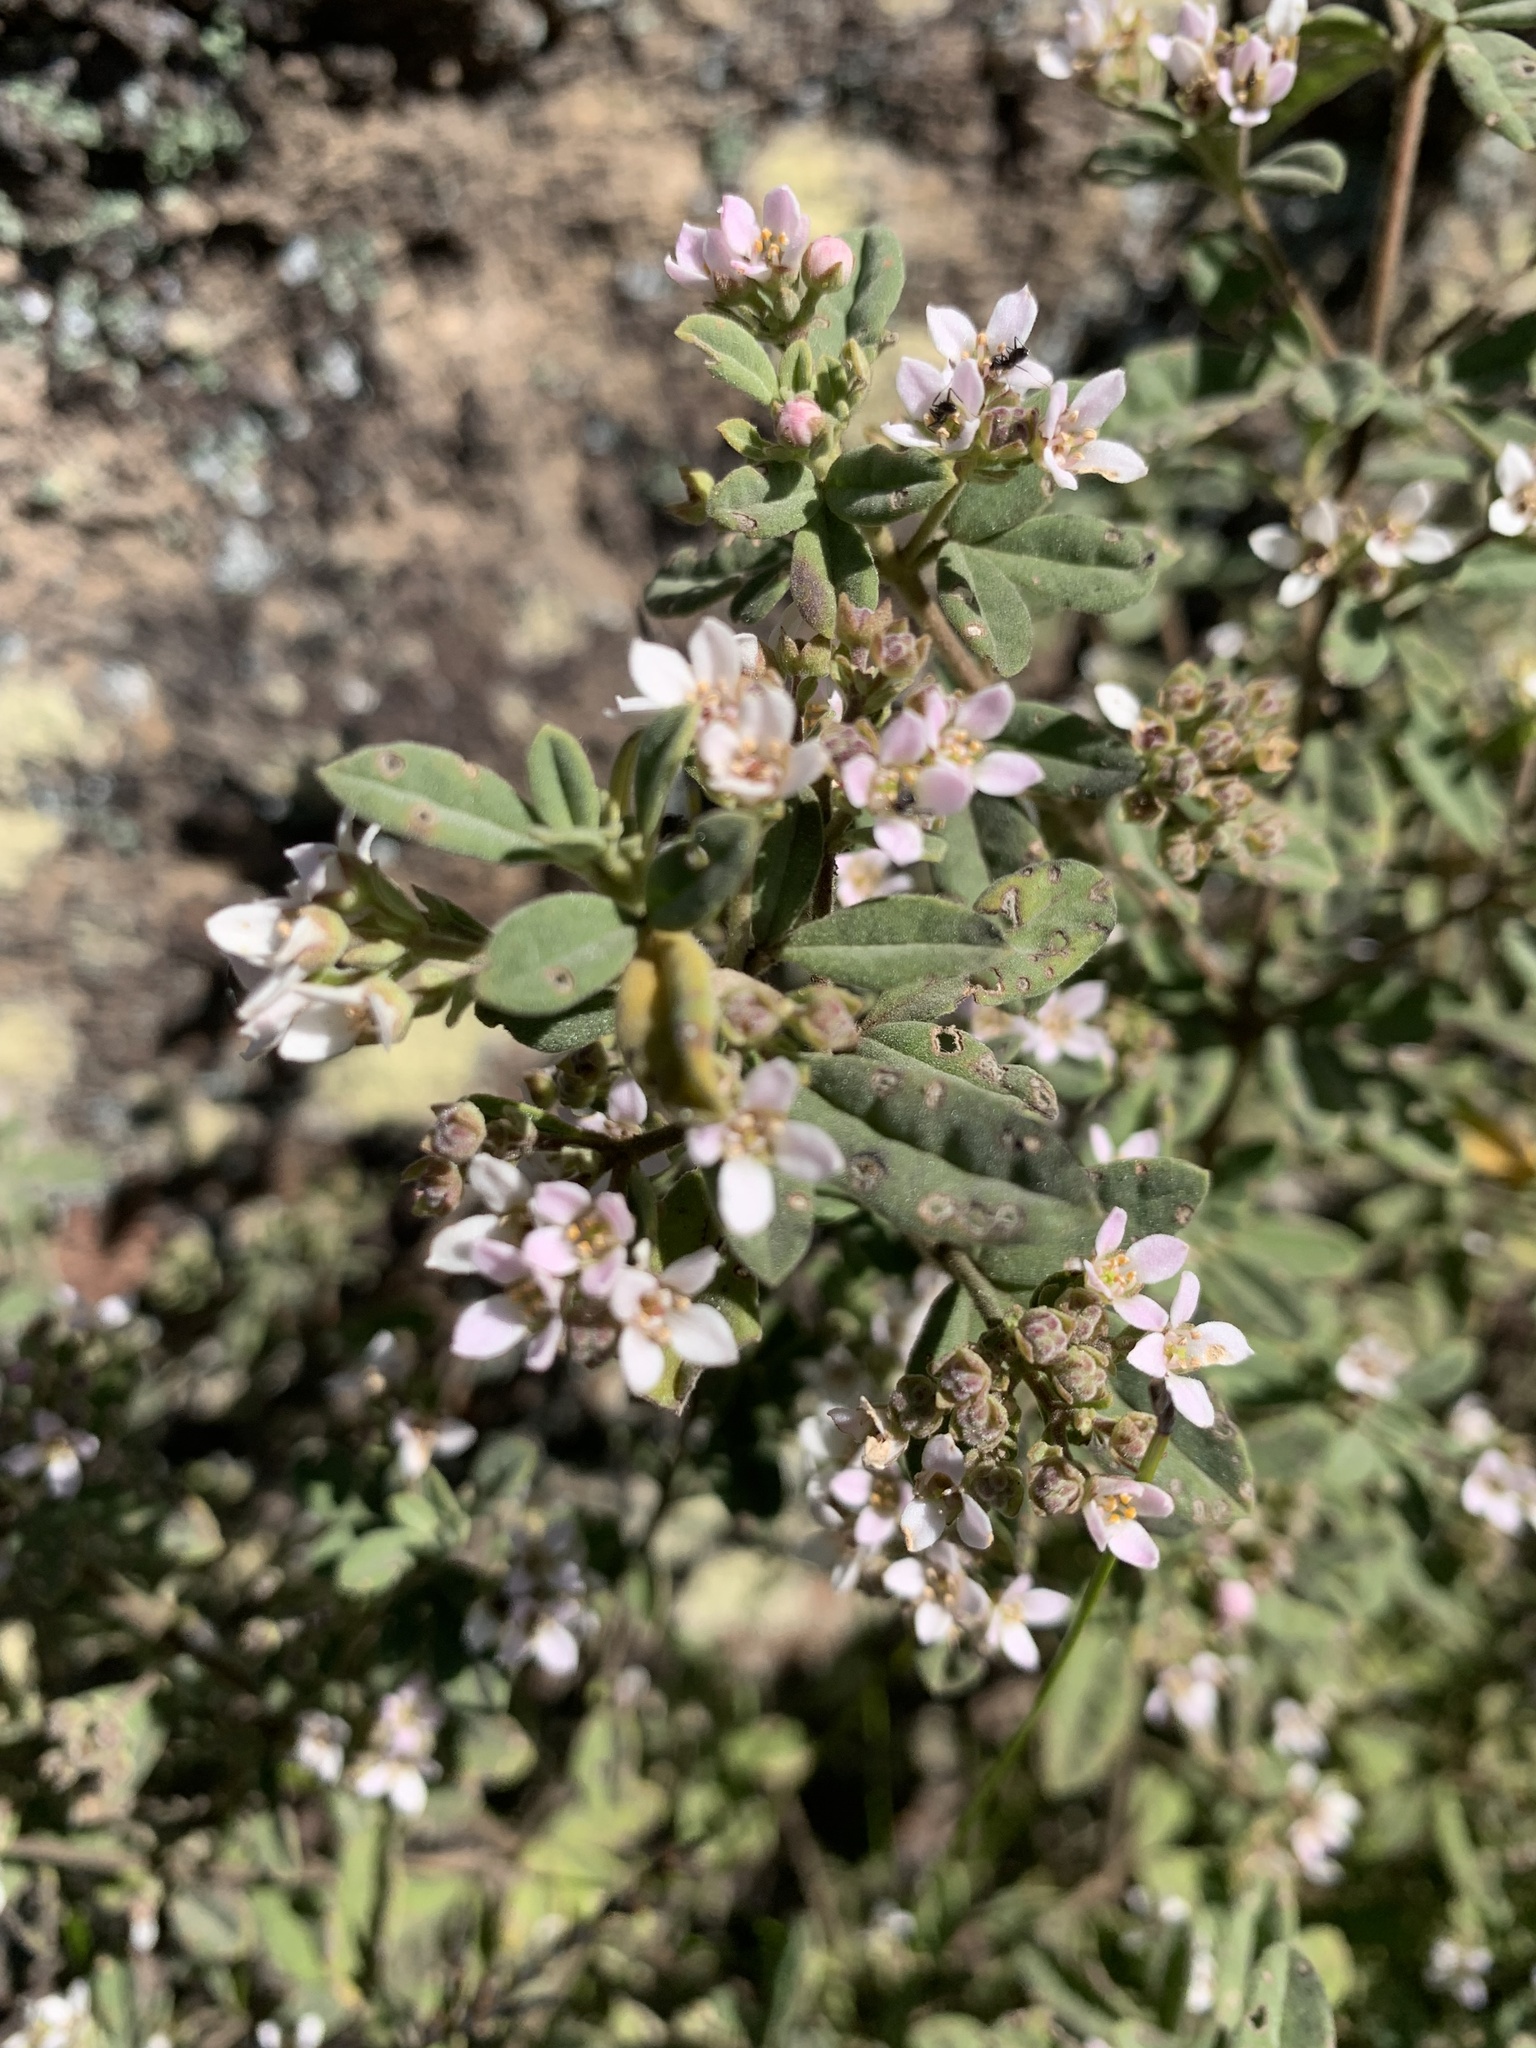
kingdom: Plantae
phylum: Tracheophyta
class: Magnoliopsida
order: Sapindales
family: Rutaceae
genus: Zieria
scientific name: Zieria cytisoides
